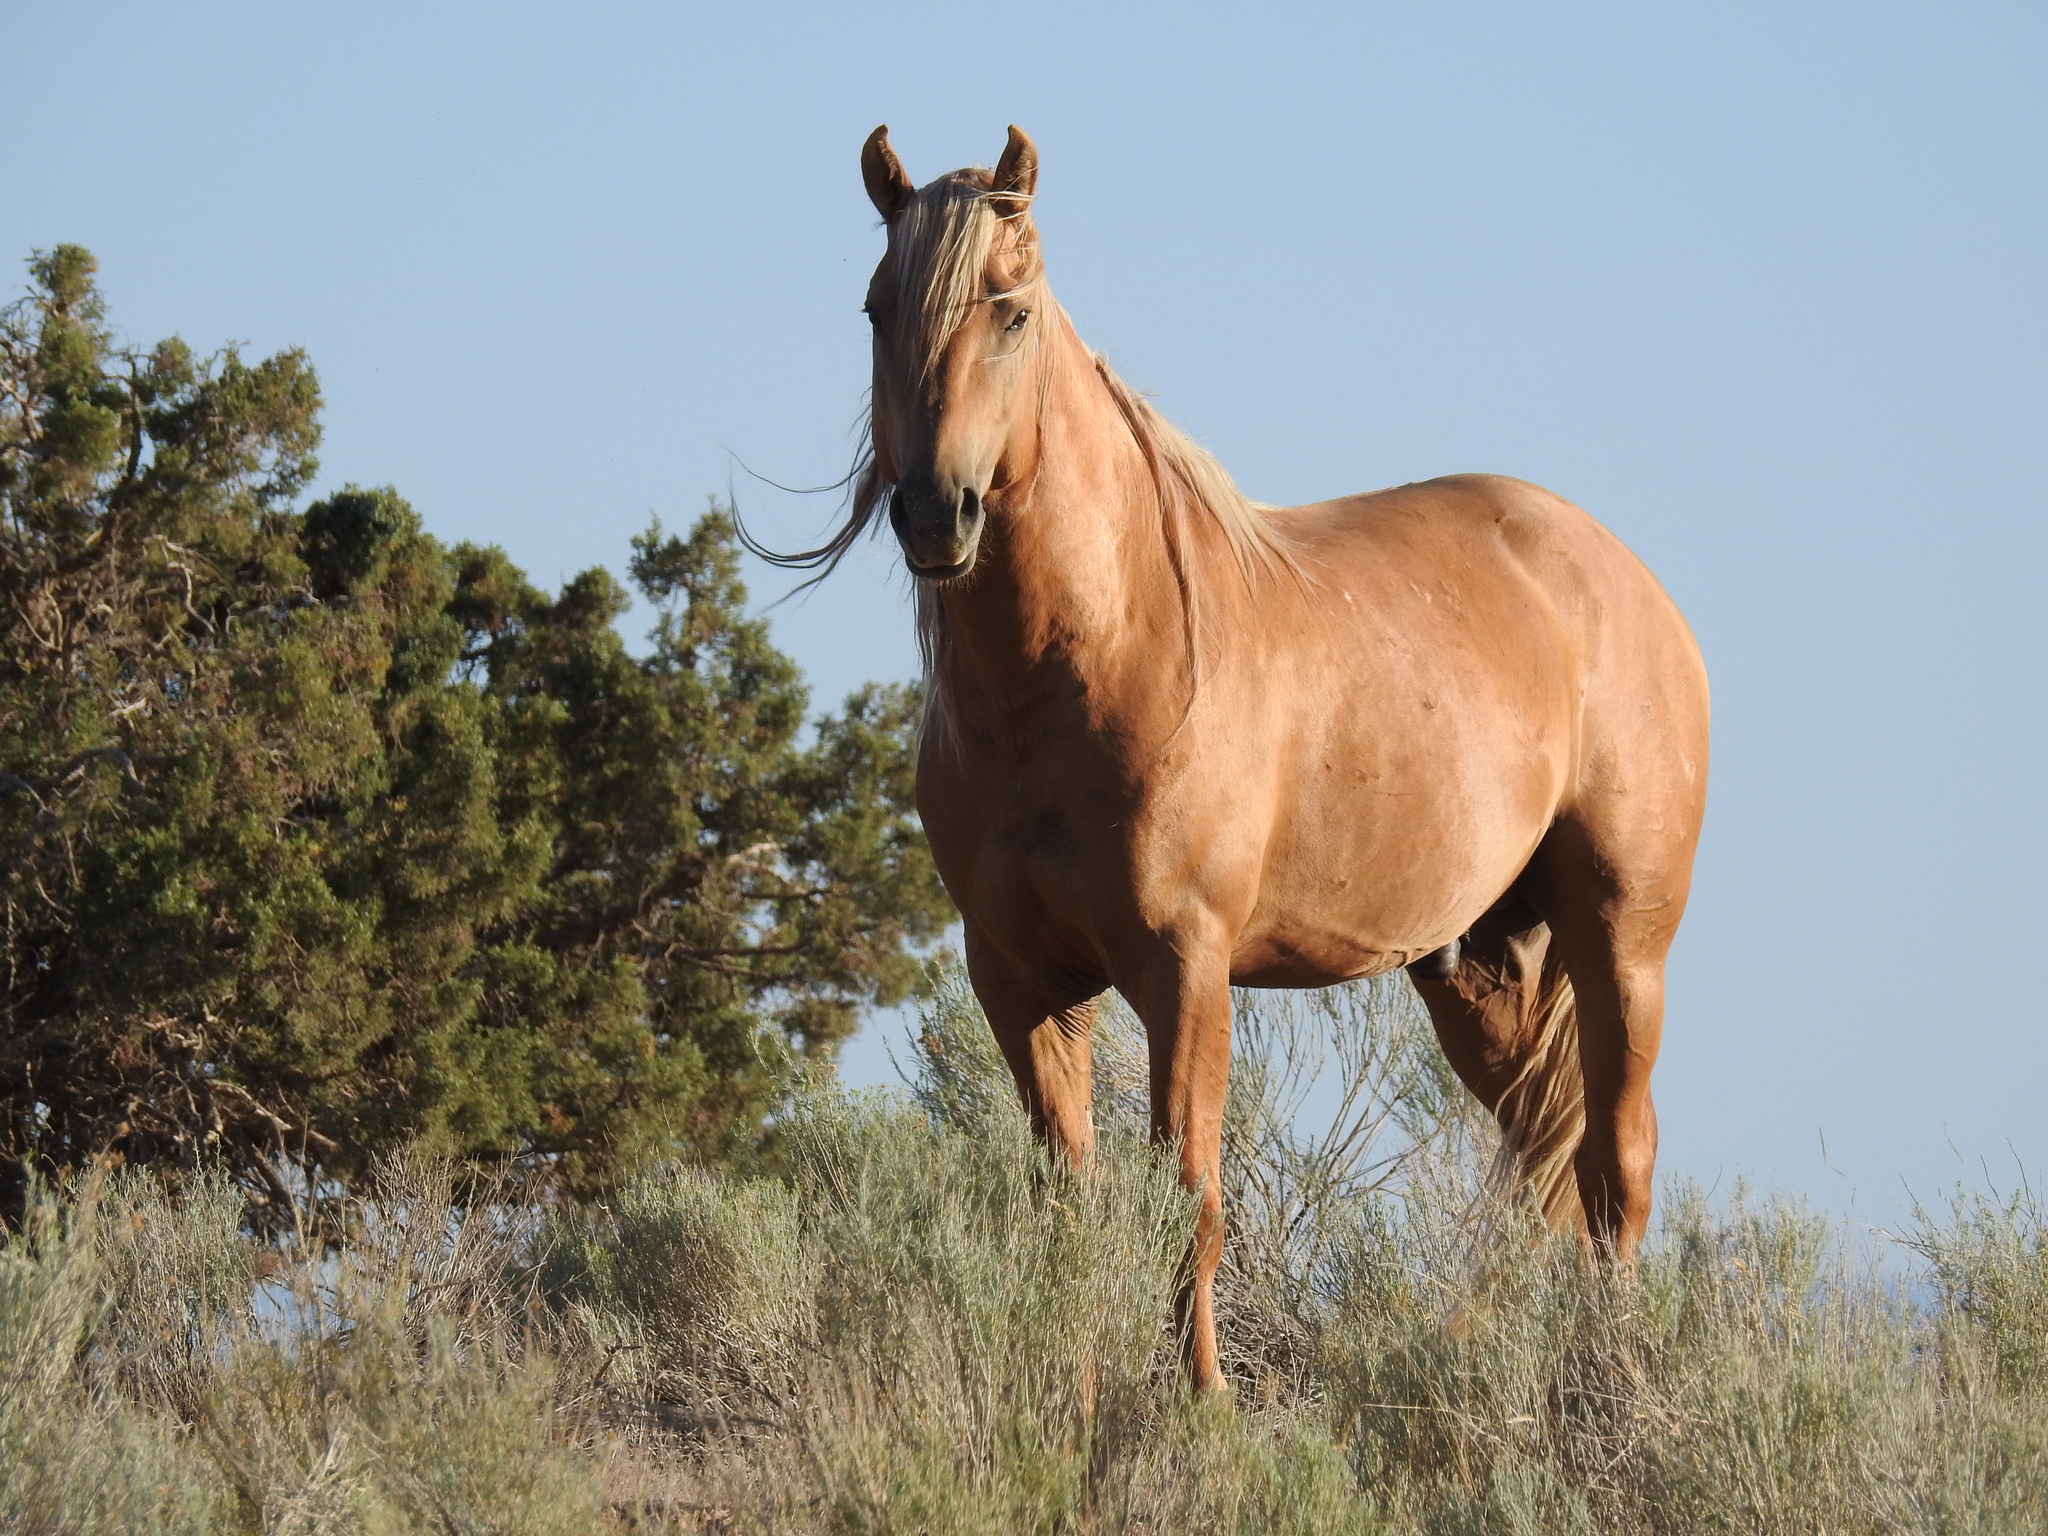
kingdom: Animalia
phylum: Chordata
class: Mammalia
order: Perissodactyla
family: Equidae
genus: Equus
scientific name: Equus caballus
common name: Horse
